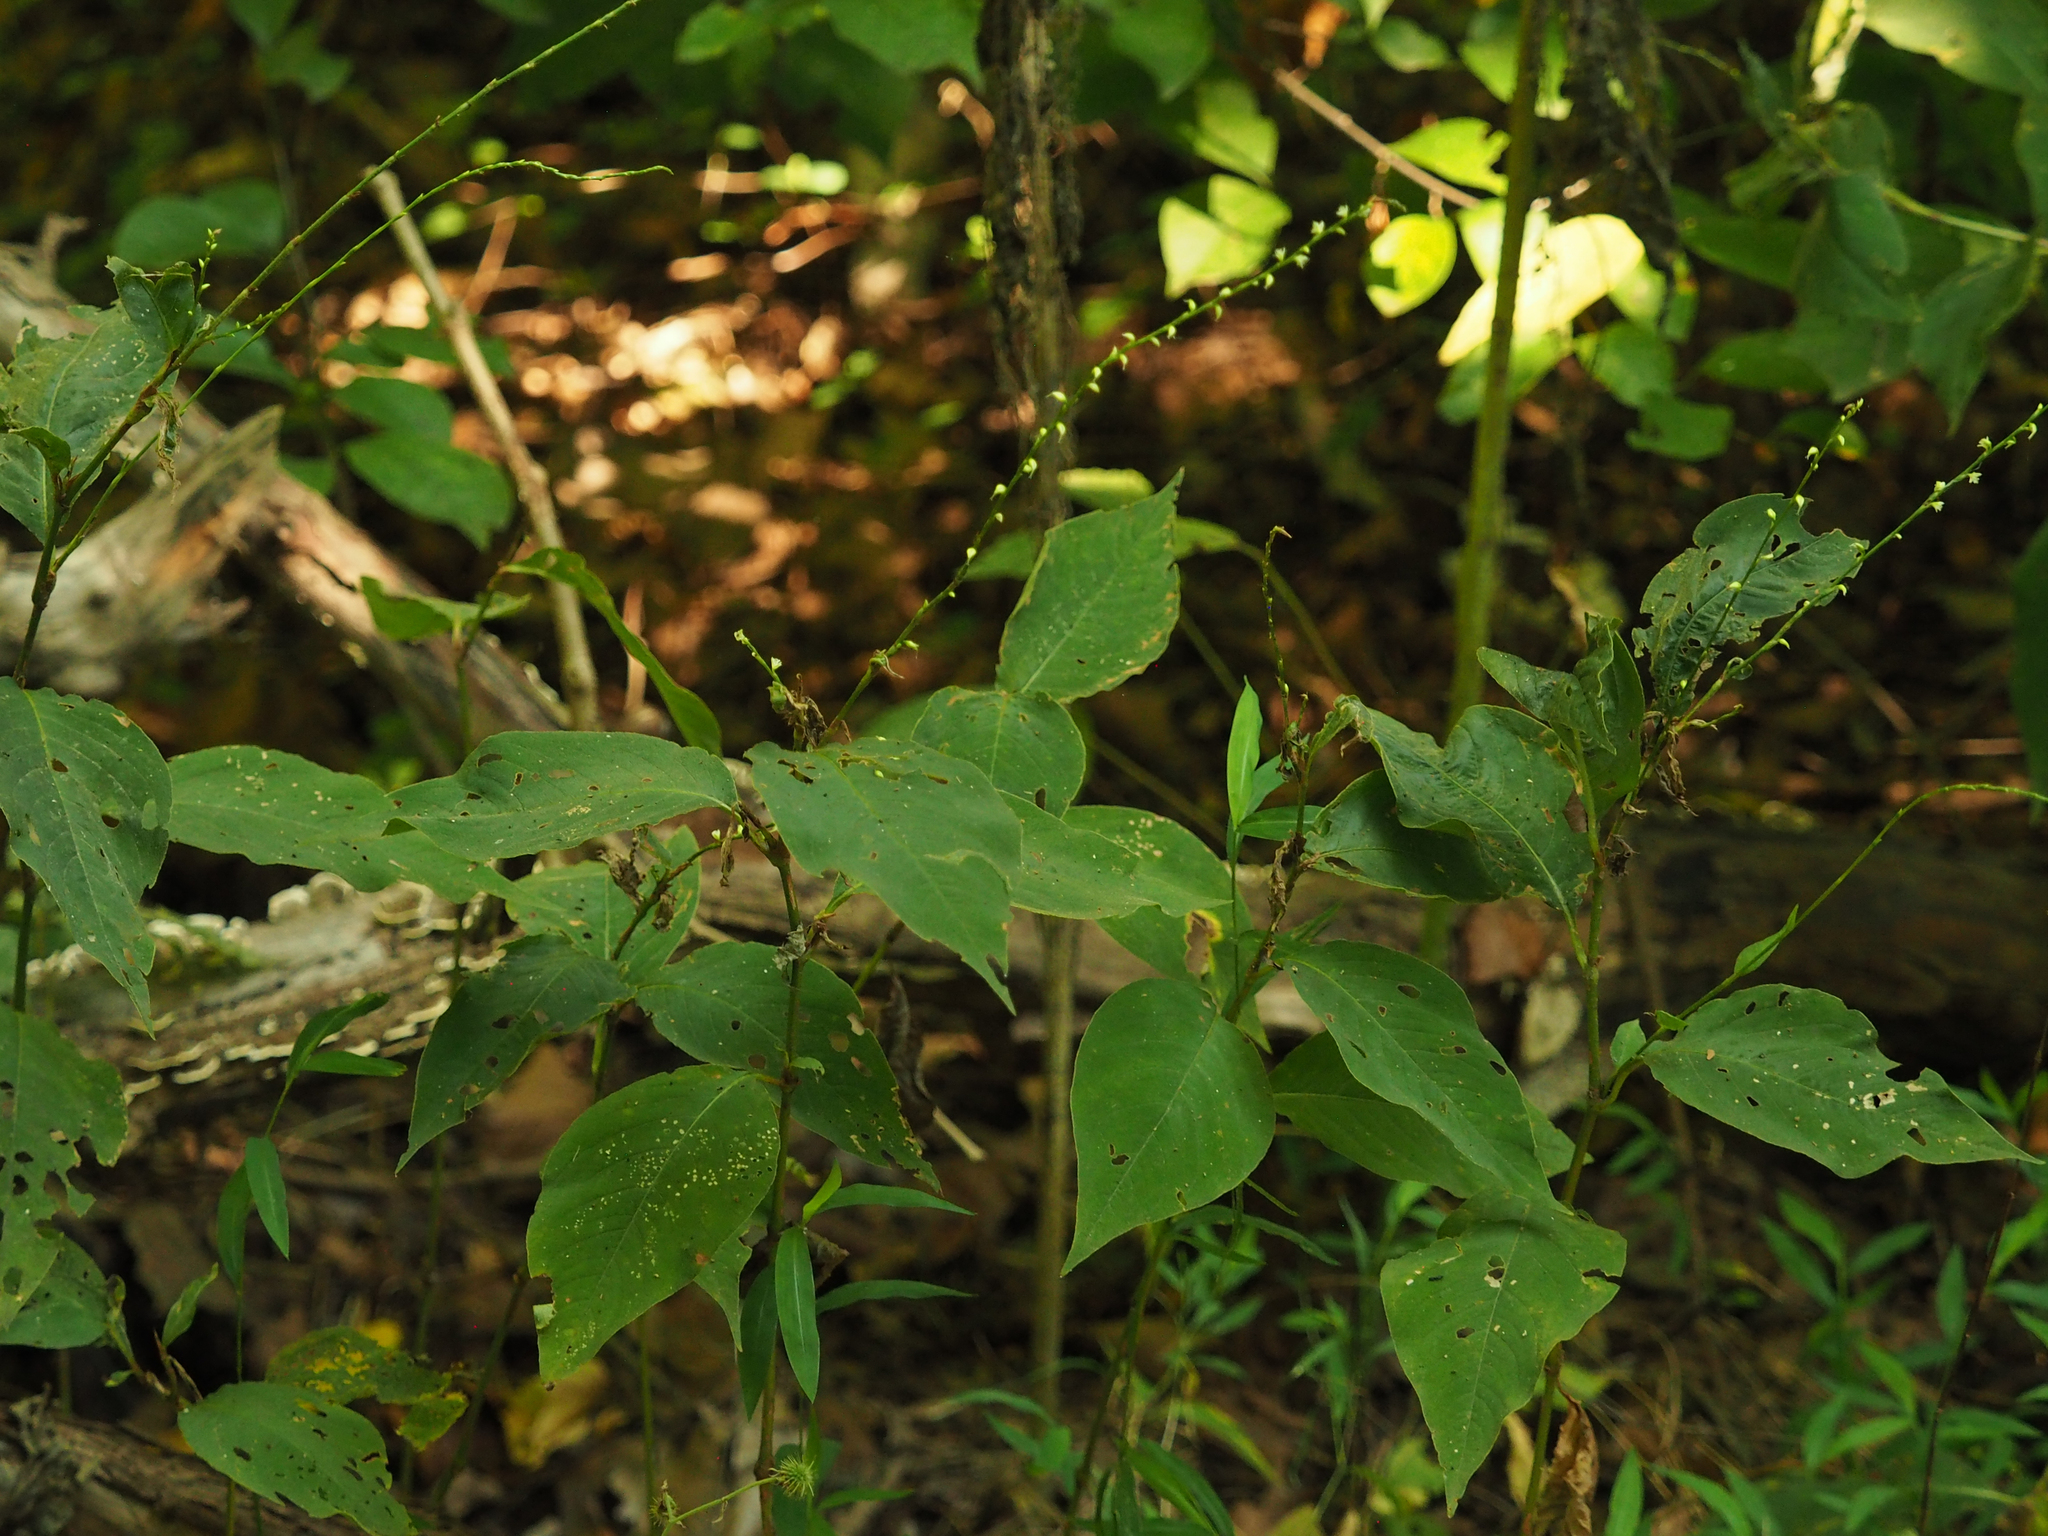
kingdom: Plantae
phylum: Tracheophyta
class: Magnoliopsida
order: Caryophyllales
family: Polygonaceae
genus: Persicaria
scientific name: Persicaria virginiana
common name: Jumpseed
